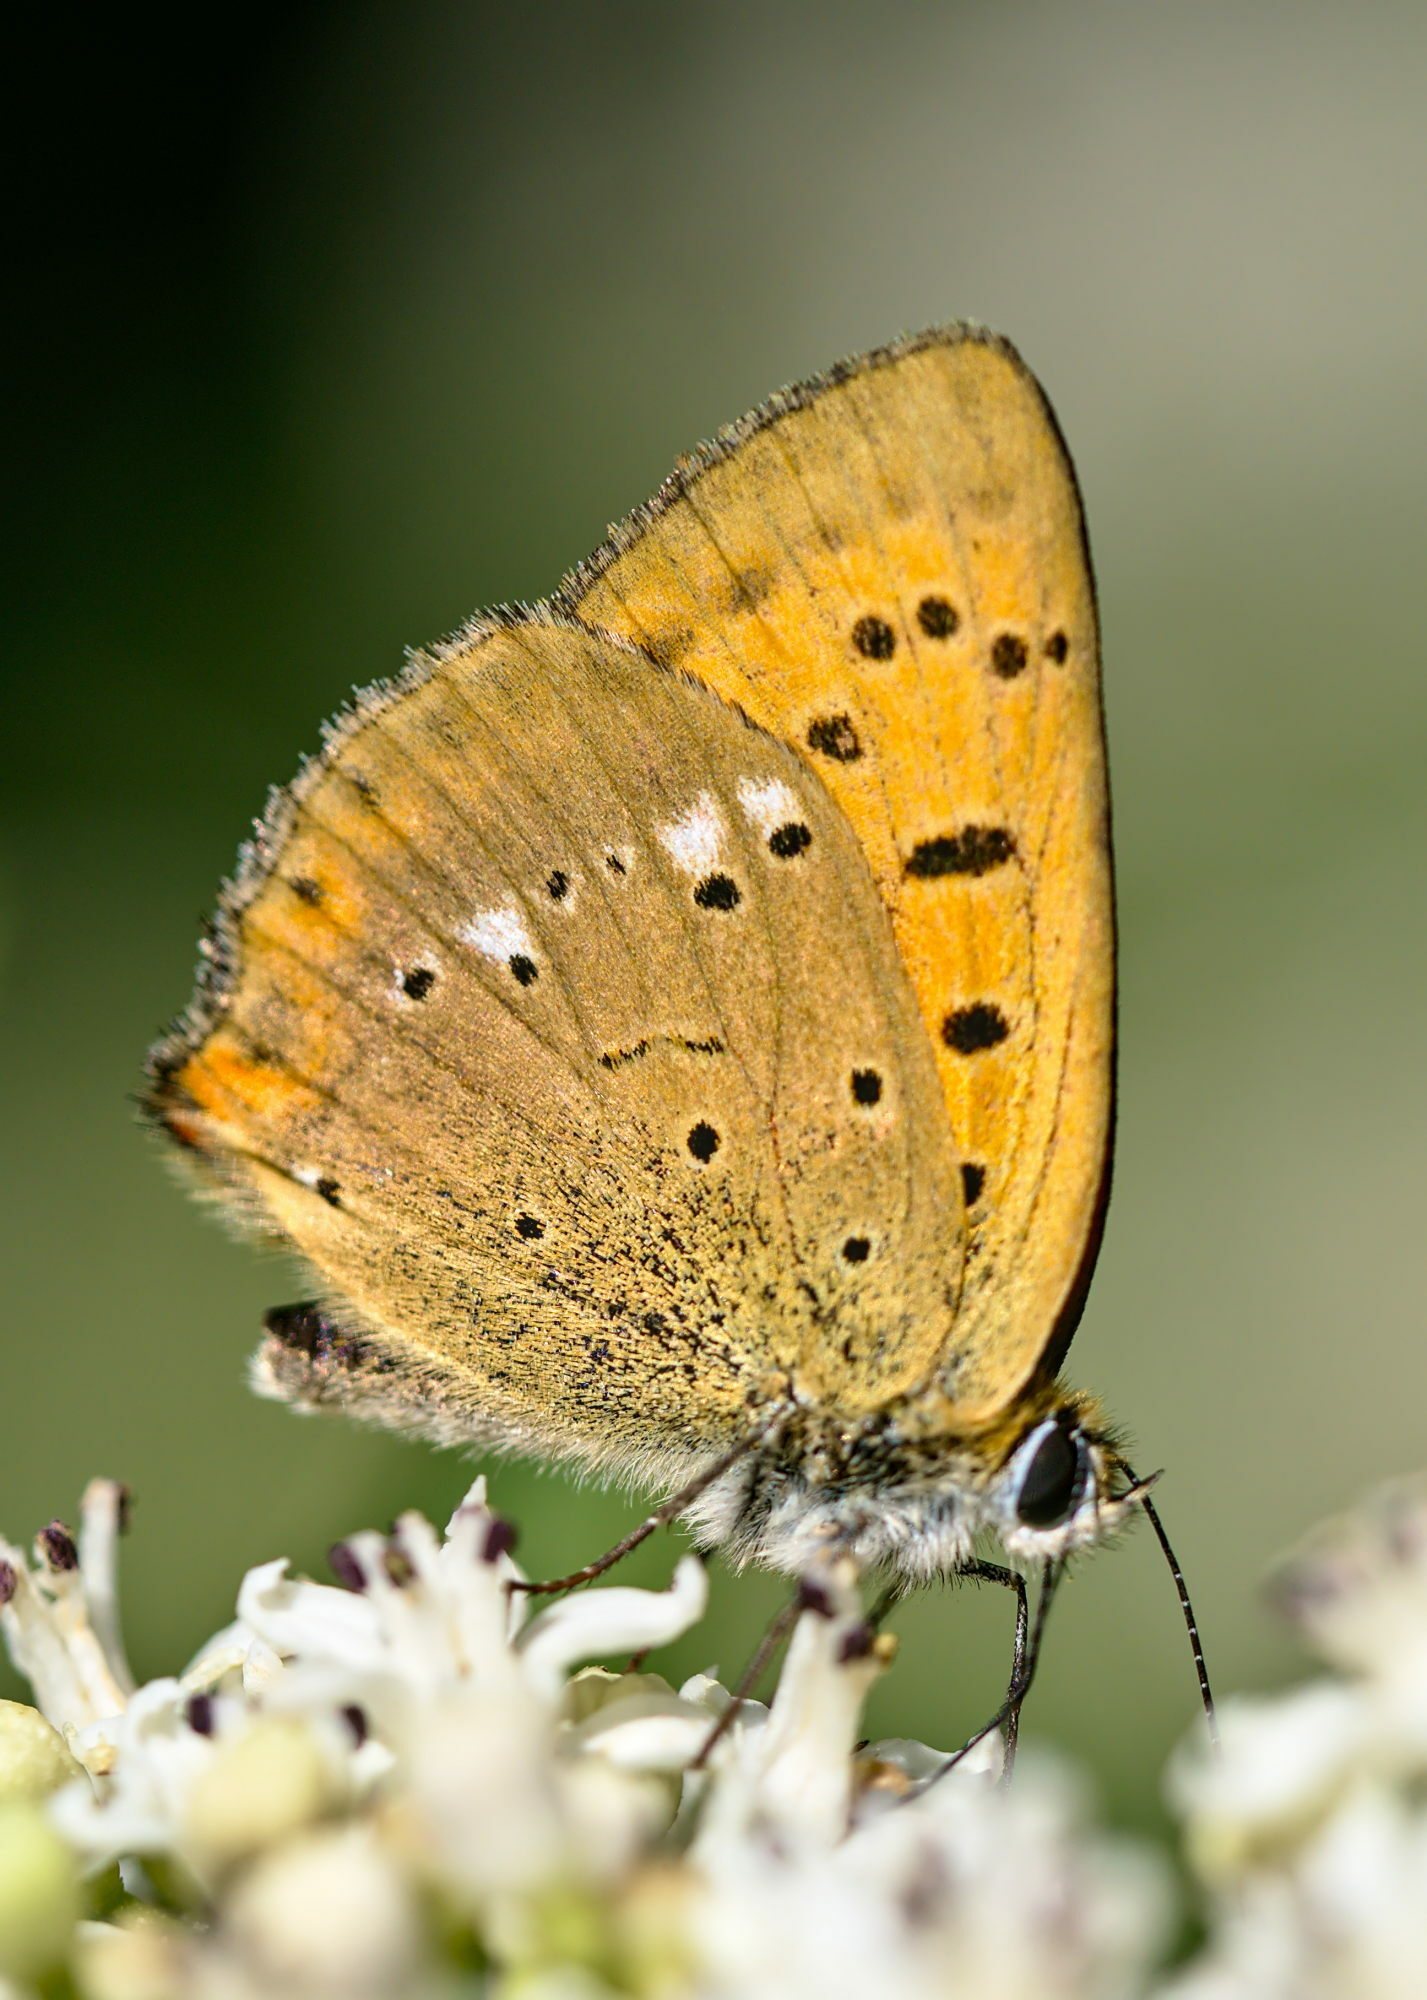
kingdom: Animalia
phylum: Arthropoda
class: Insecta
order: Lepidoptera
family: Lycaenidae
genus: Lycaena
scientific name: Lycaena virgaureae
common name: Scarce copper
